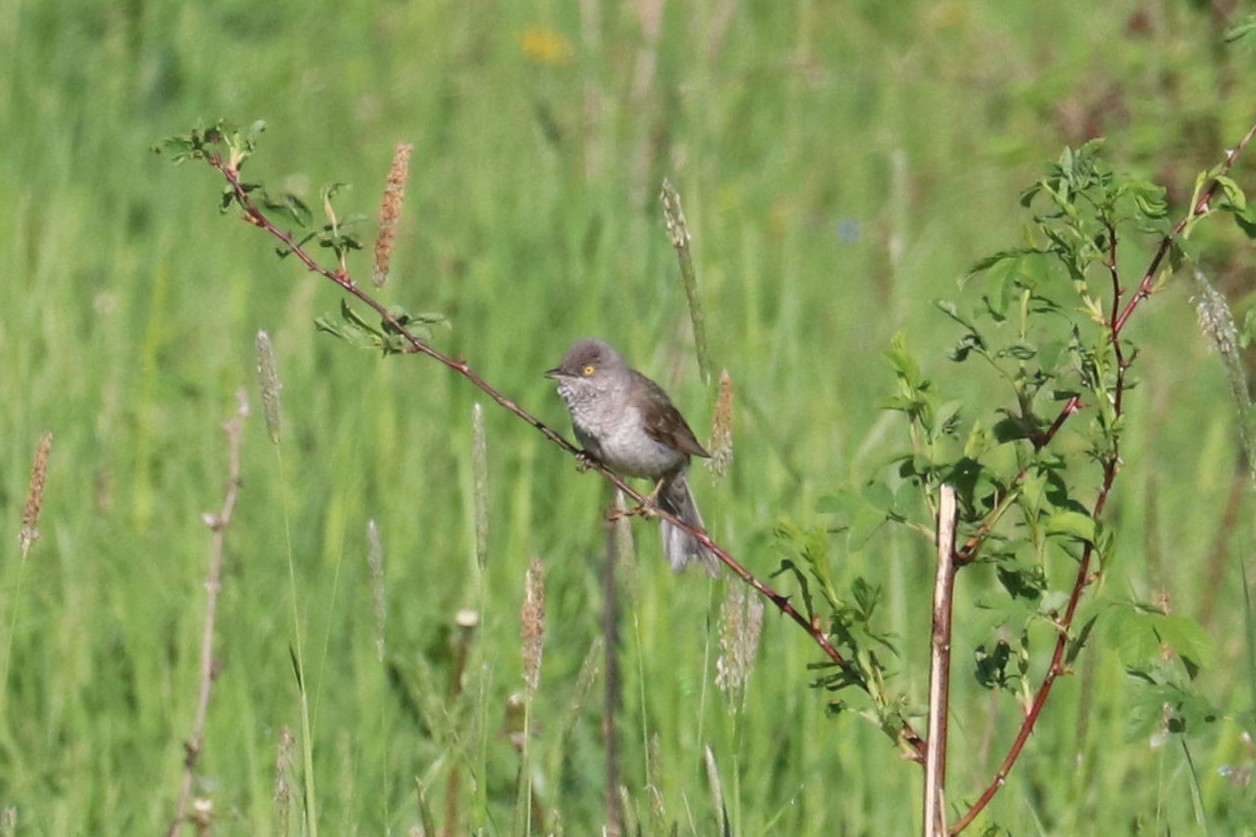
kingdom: Animalia
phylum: Chordata
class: Aves
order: Passeriformes
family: Sylviidae
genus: Sylvia
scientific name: Sylvia nisoria
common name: Barred warbler
